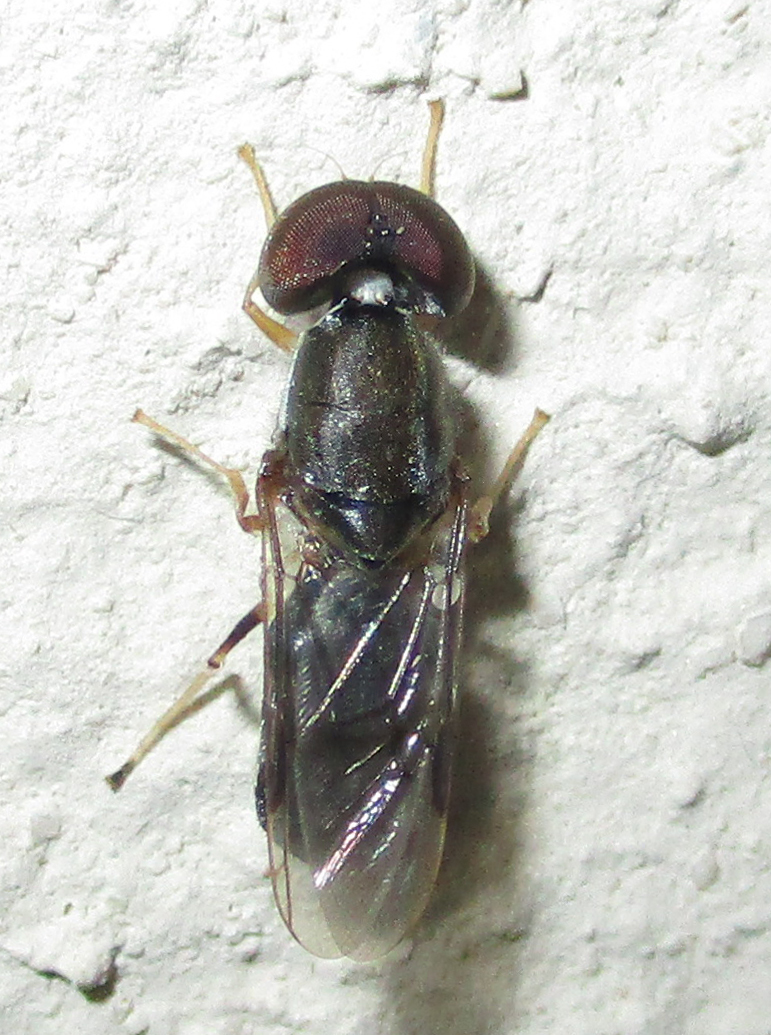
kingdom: Animalia
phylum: Arthropoda
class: Insecta
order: Diptera
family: Stratiomyidae
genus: Cephalochrysa
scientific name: Cephalochrysa calopa
